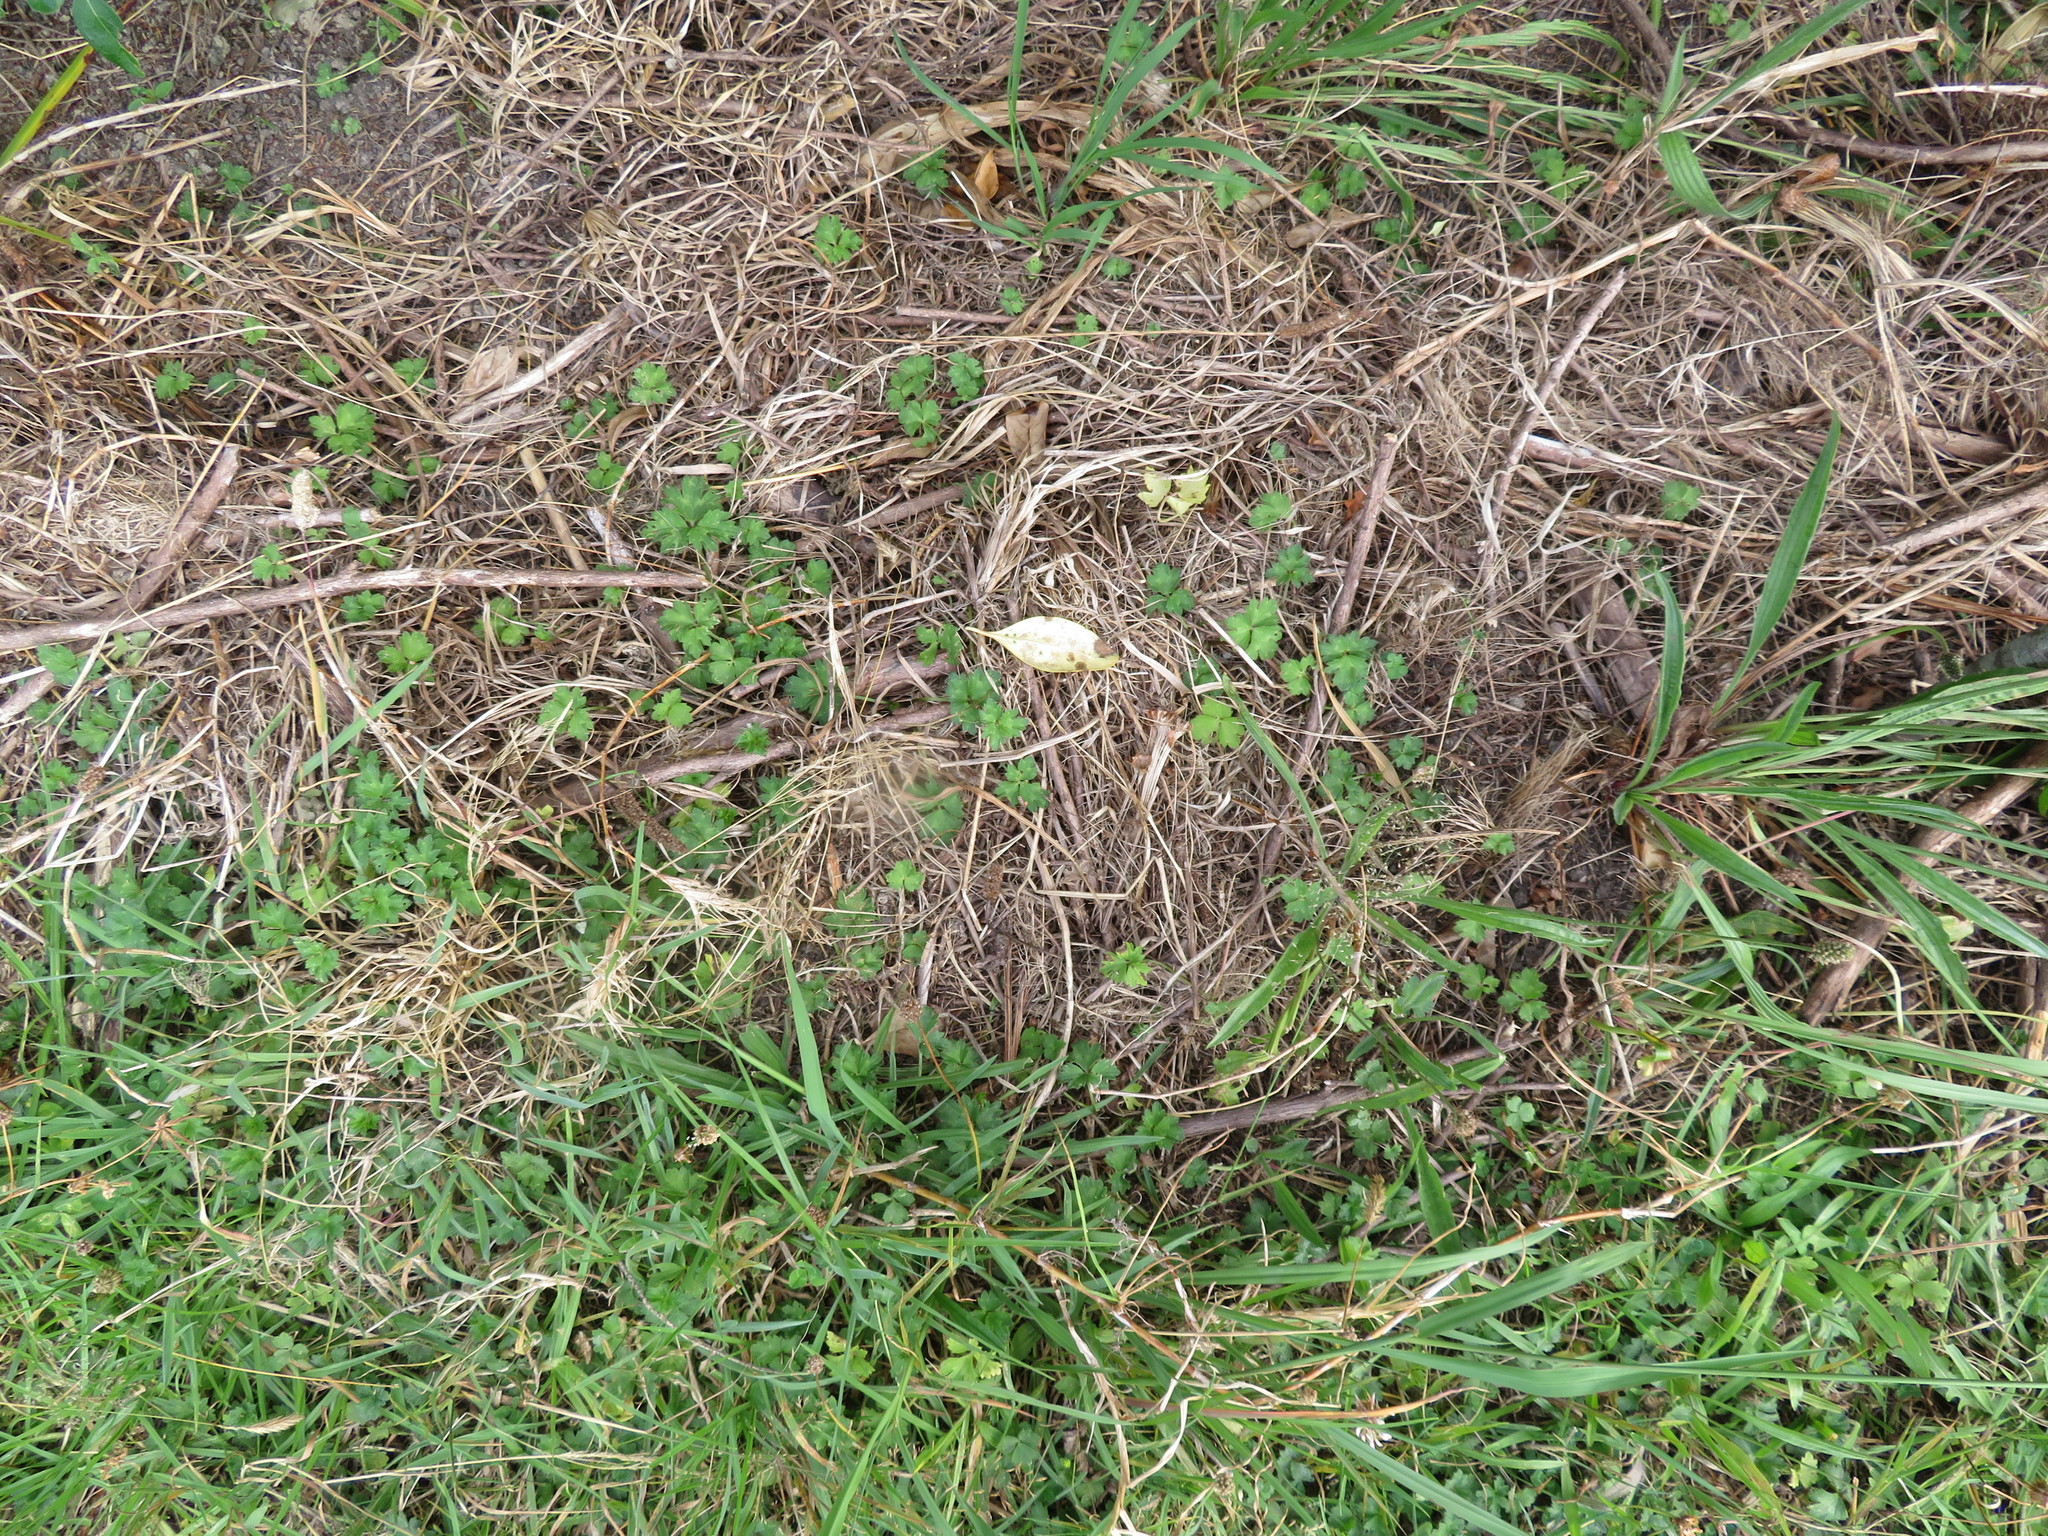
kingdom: Plantae
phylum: Tracheophyta
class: Magnoliopsida
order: Lamiales
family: Plantaginaceae
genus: Plantago
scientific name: Plantago lanceolata
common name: Ribwort plantain
